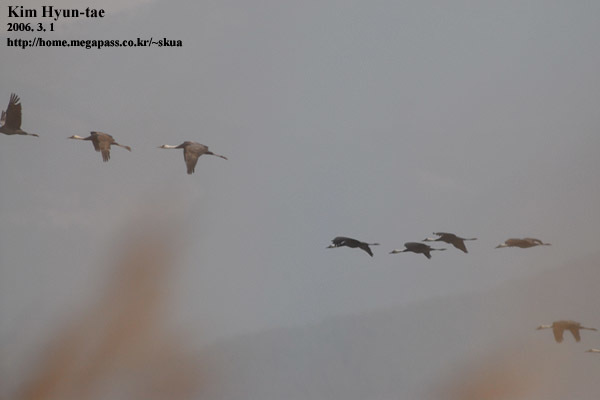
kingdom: Animalia
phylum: Chordata
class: Aves
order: Gruiformes
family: Gruidae
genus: Grus
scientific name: Grus monacha
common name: Hooded crane
